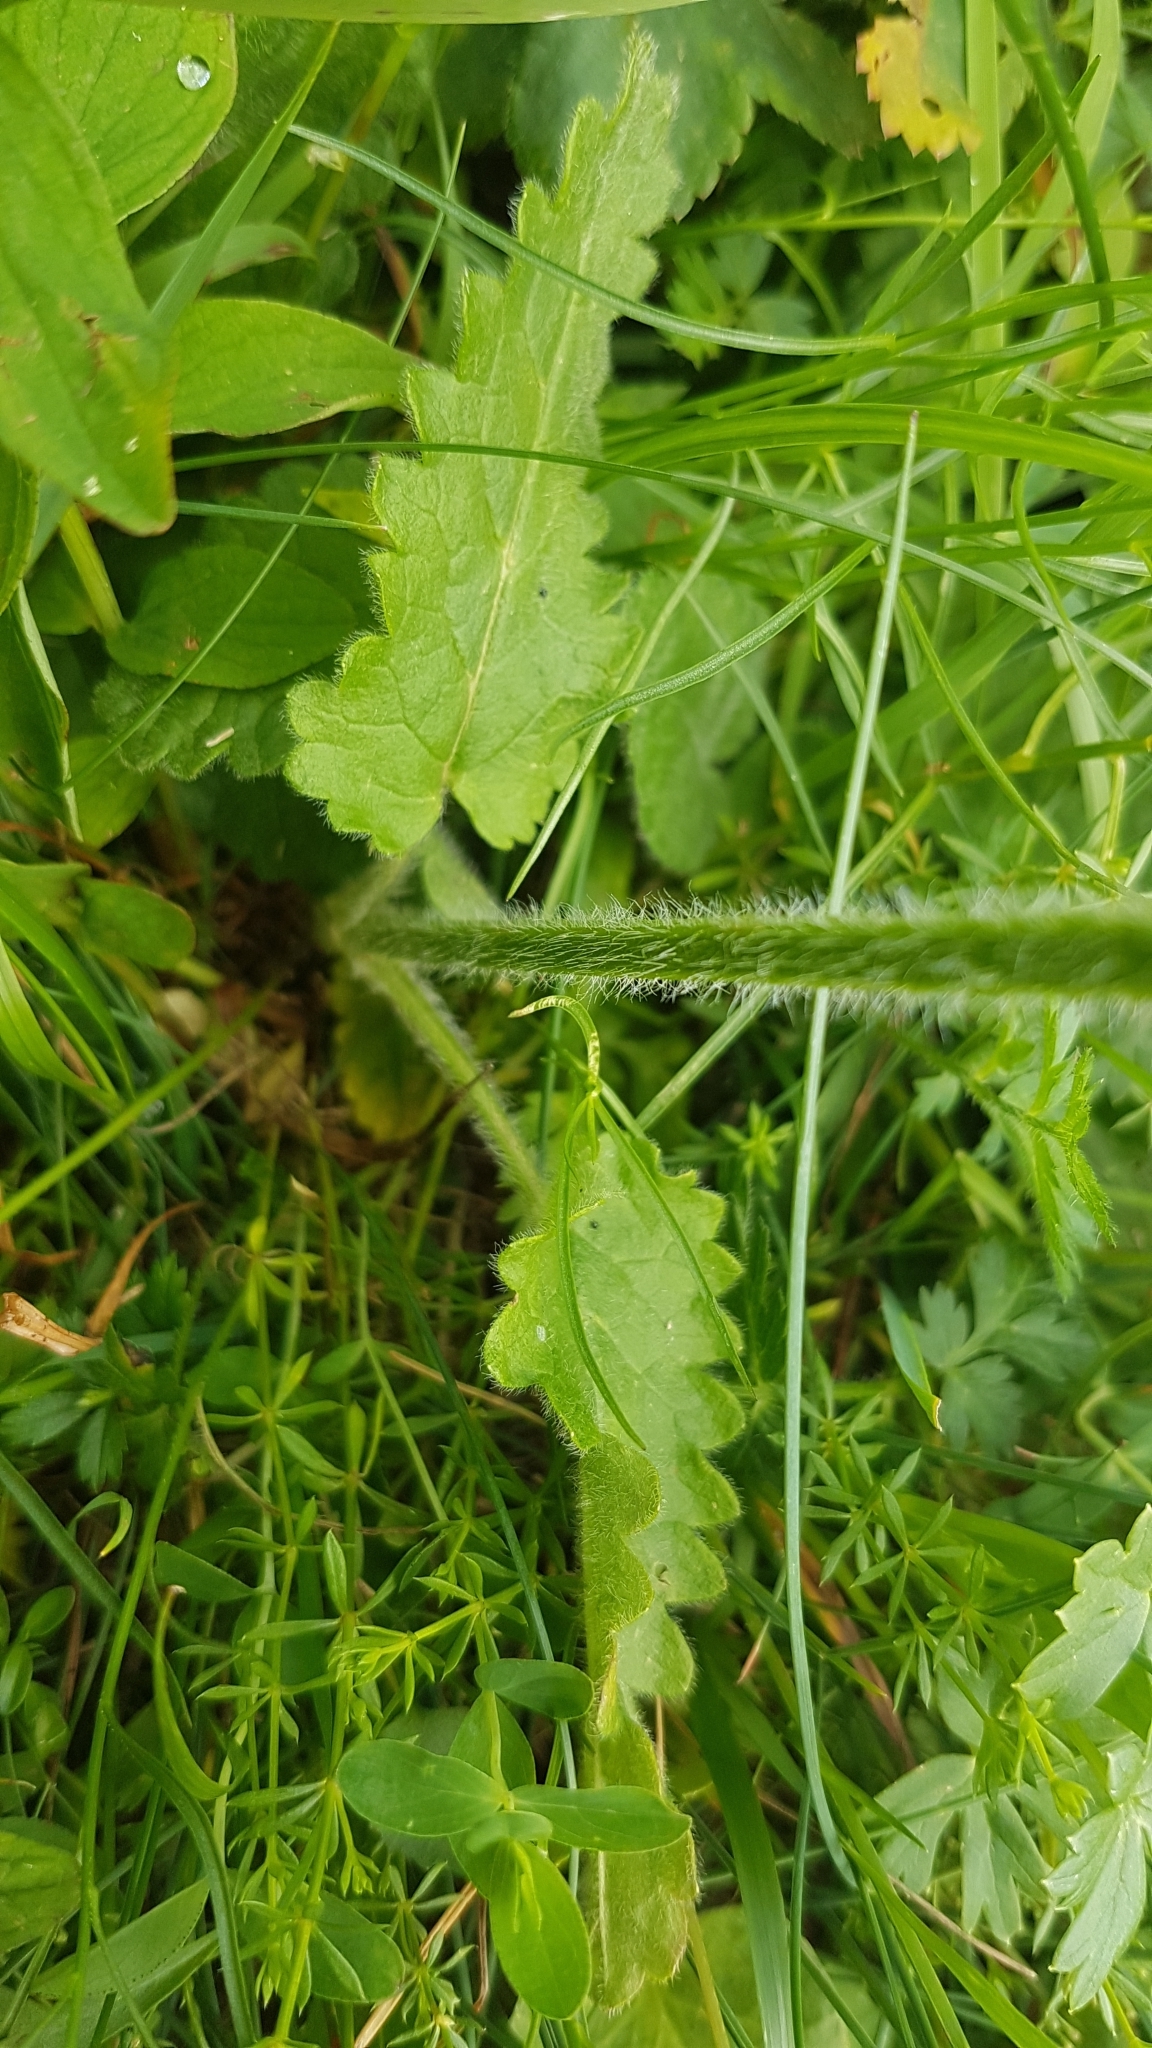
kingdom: Plantae
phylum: Tracheophyta
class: Magnoliopsida
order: Lamiales
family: Lamiaceae
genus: Betonica
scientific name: Betonica hirsuta
